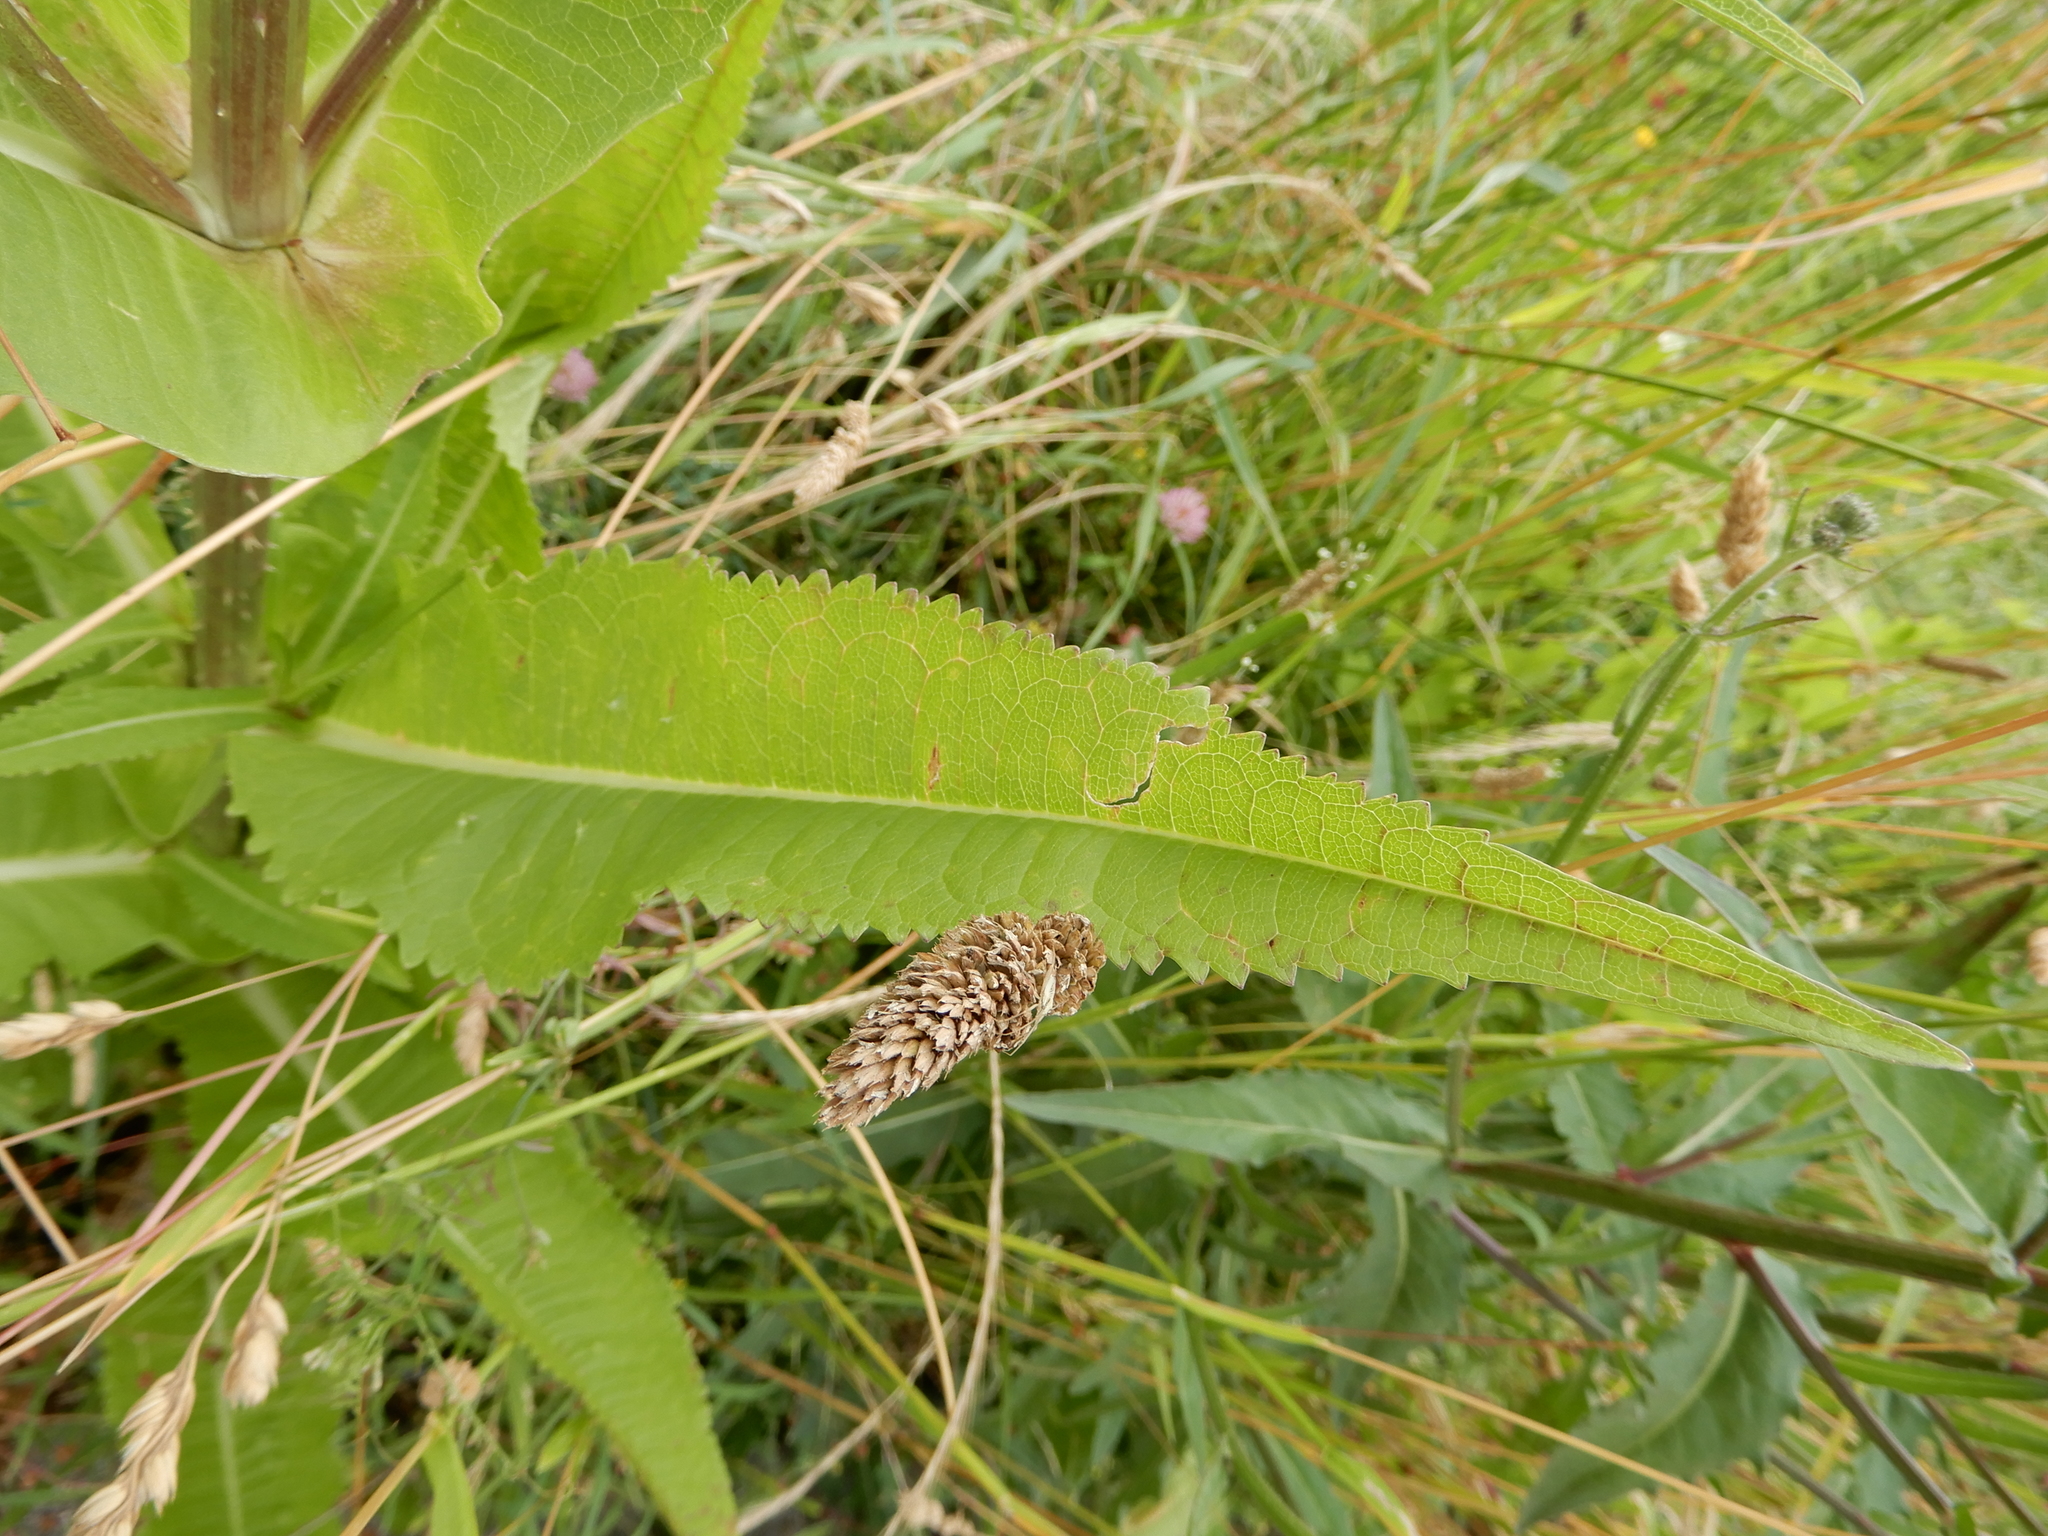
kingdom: Plantae
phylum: Tracheophyta
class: Magnoliopsida
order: Dipsacales
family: Caprifoliaceae
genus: Dipsacus
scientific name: Dipsacus fullonum
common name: Teasel
